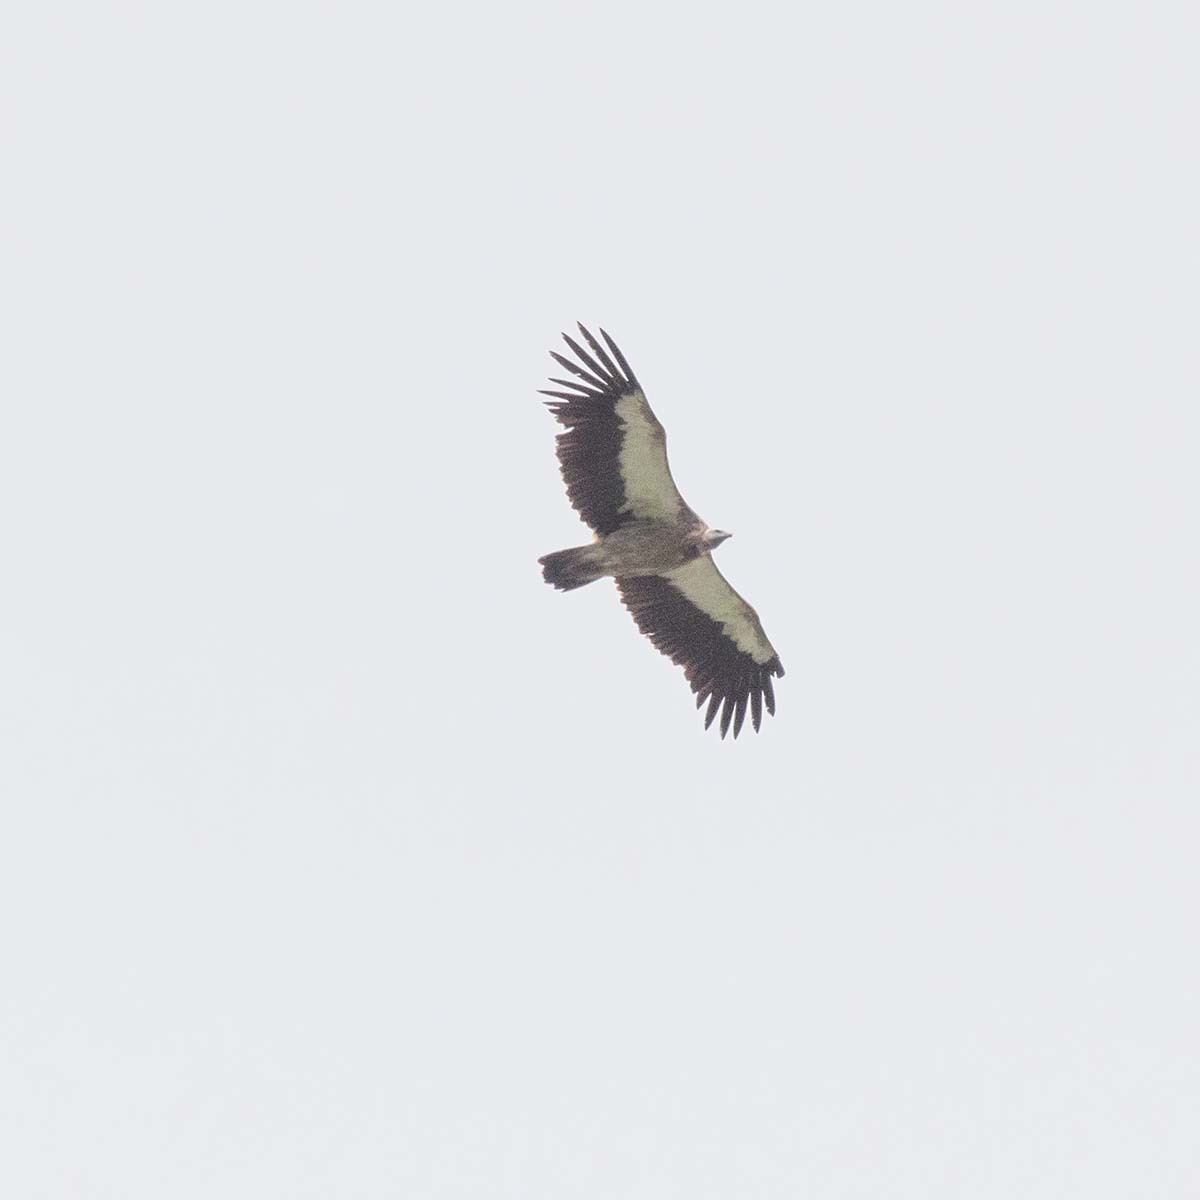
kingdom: Animalia
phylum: Chordata
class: Aves
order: Accipitriformes
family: Accipitridae
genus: Gyps
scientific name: Gyps himalayensis
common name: Himalayan griffon
